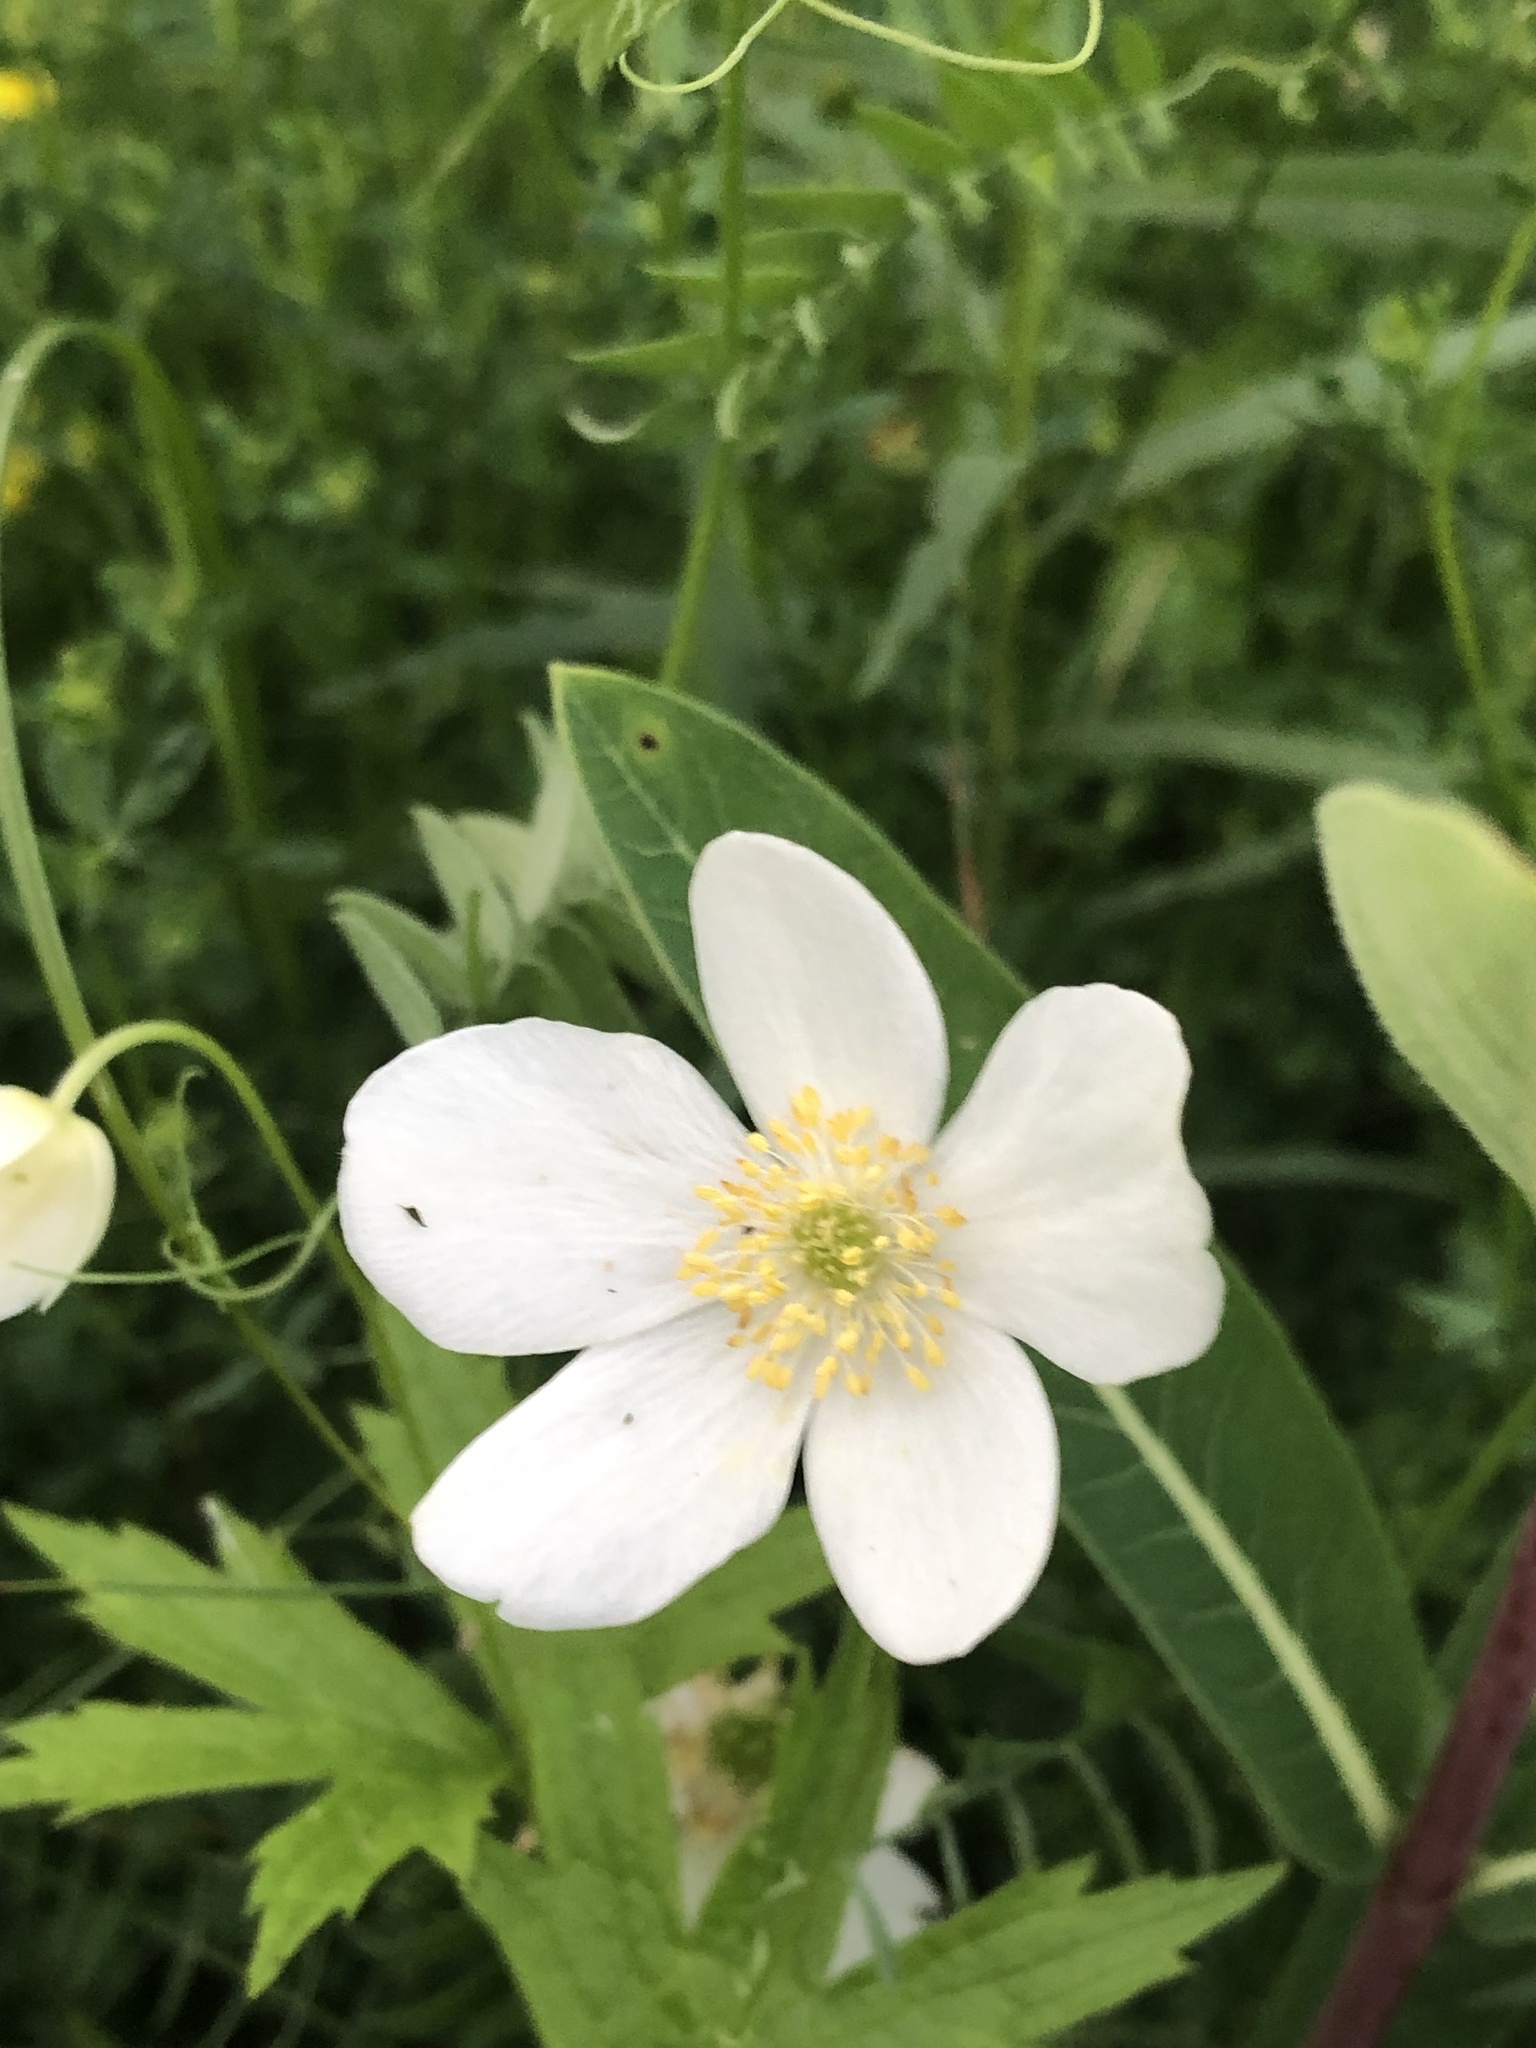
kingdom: Plantae
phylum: Tracheophyta
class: Magnoliopsida
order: Ranunculales
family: Ranunculaceae
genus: Anemonastrum
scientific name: Anemonastrum canadense
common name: Canada anemone
